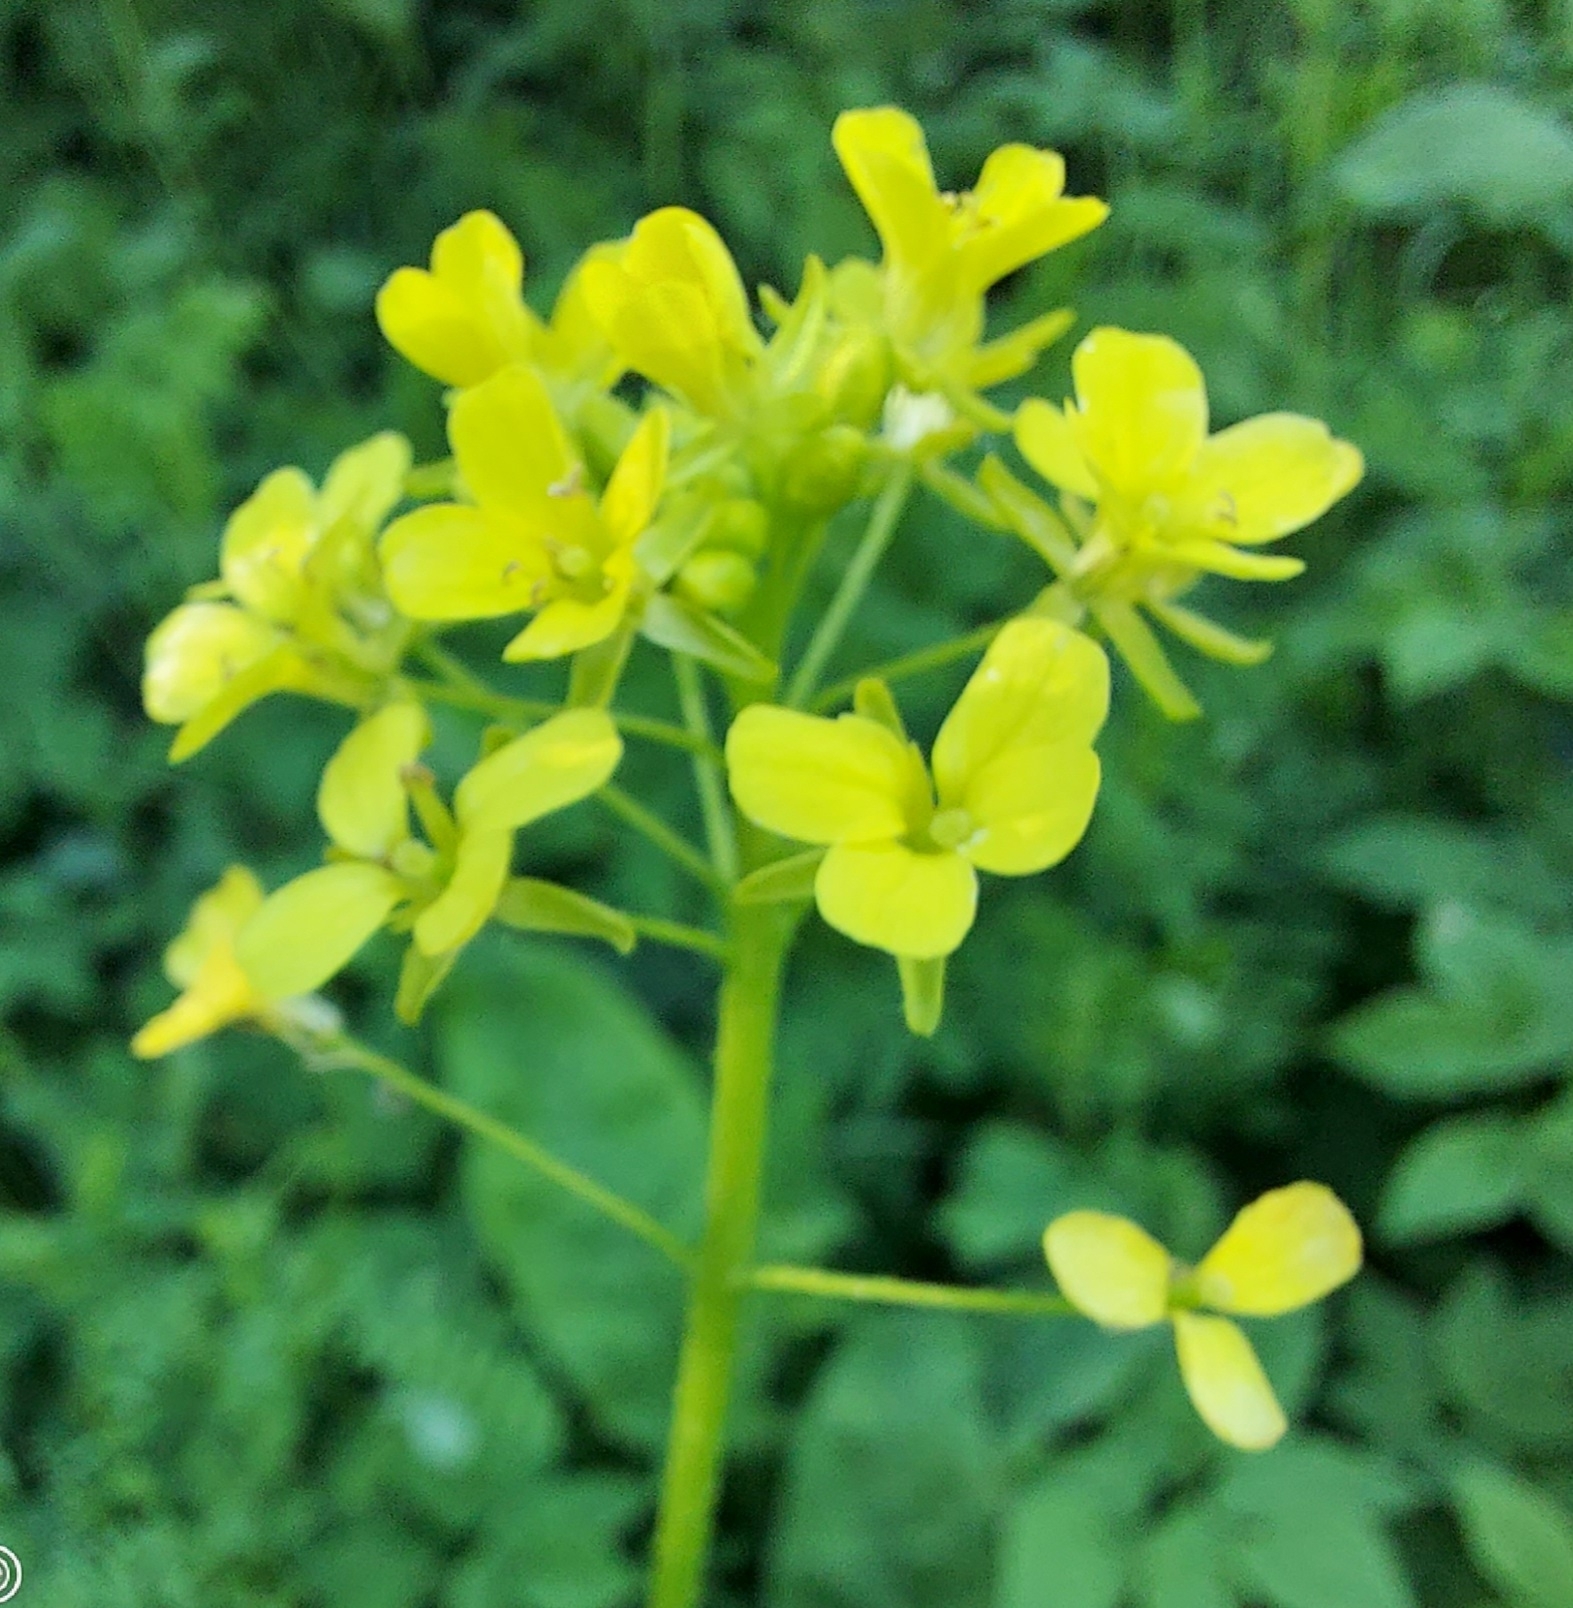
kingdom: Plantae
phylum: Tracheophyta
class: Magnoliopsida
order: Brassicales
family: Brassicaceae
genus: Bunias
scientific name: Bunias orientalis
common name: Warty-cabbage
